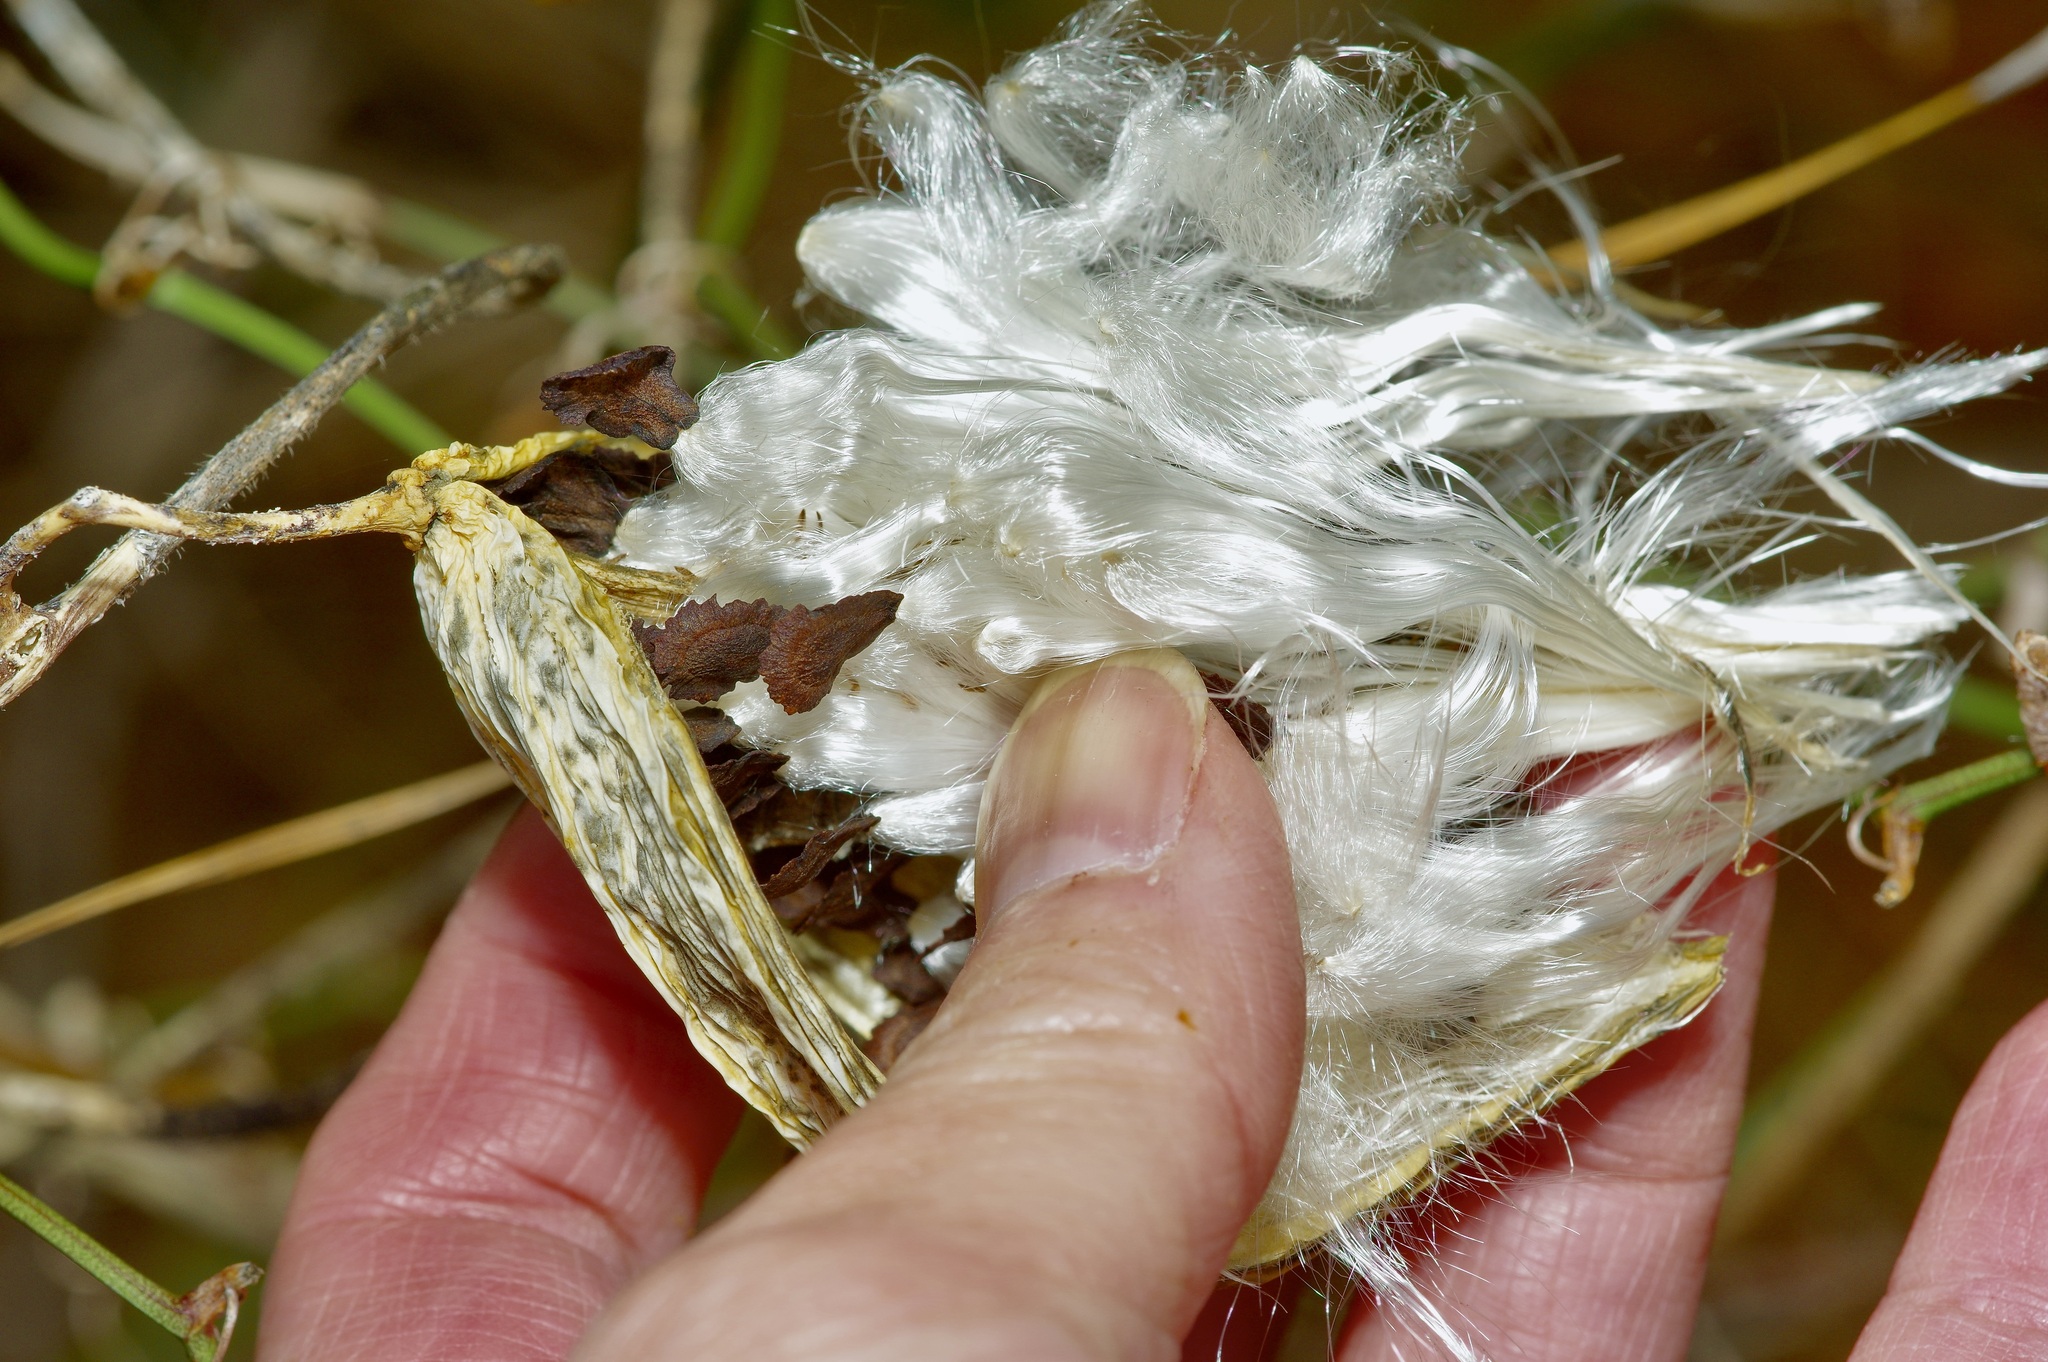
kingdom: Plantae
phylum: Tracheophyta
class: Magnoliopsida
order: Gentianales
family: Apocynaceae
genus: Gonolobus
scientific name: Gonolobus suberosus
